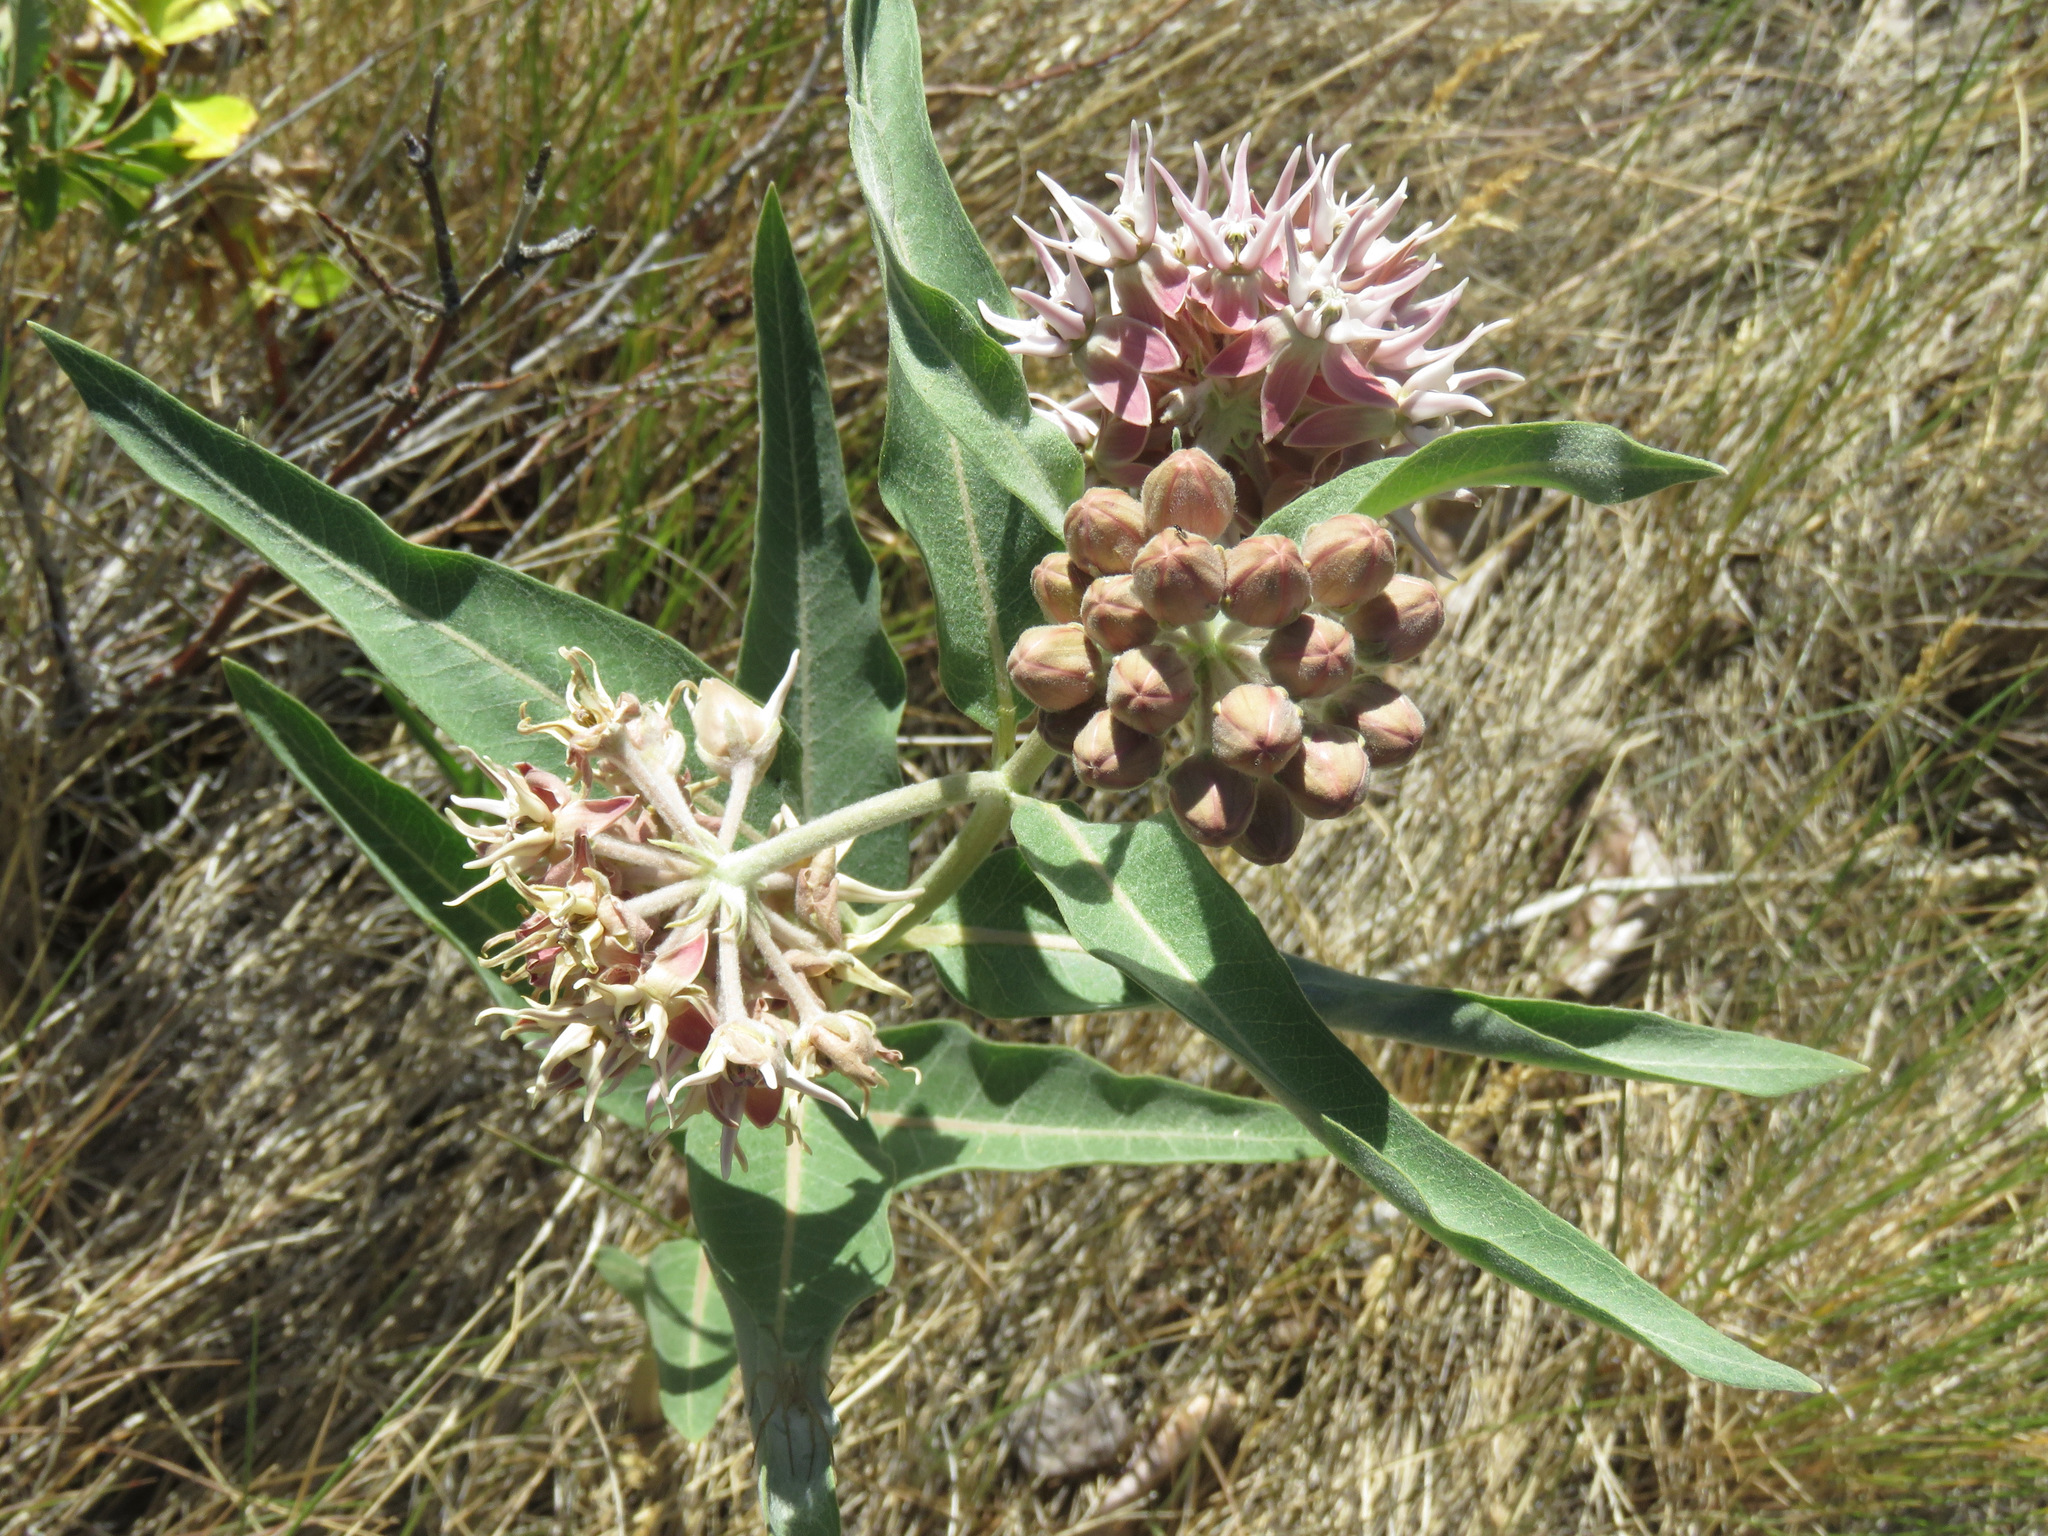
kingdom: Plantae
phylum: Tracheophyta
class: Magnoliopsida
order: Gentianales
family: Apocynaceae
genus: Asclepias
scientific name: Asclepias speciosa
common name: Showy milkweed
